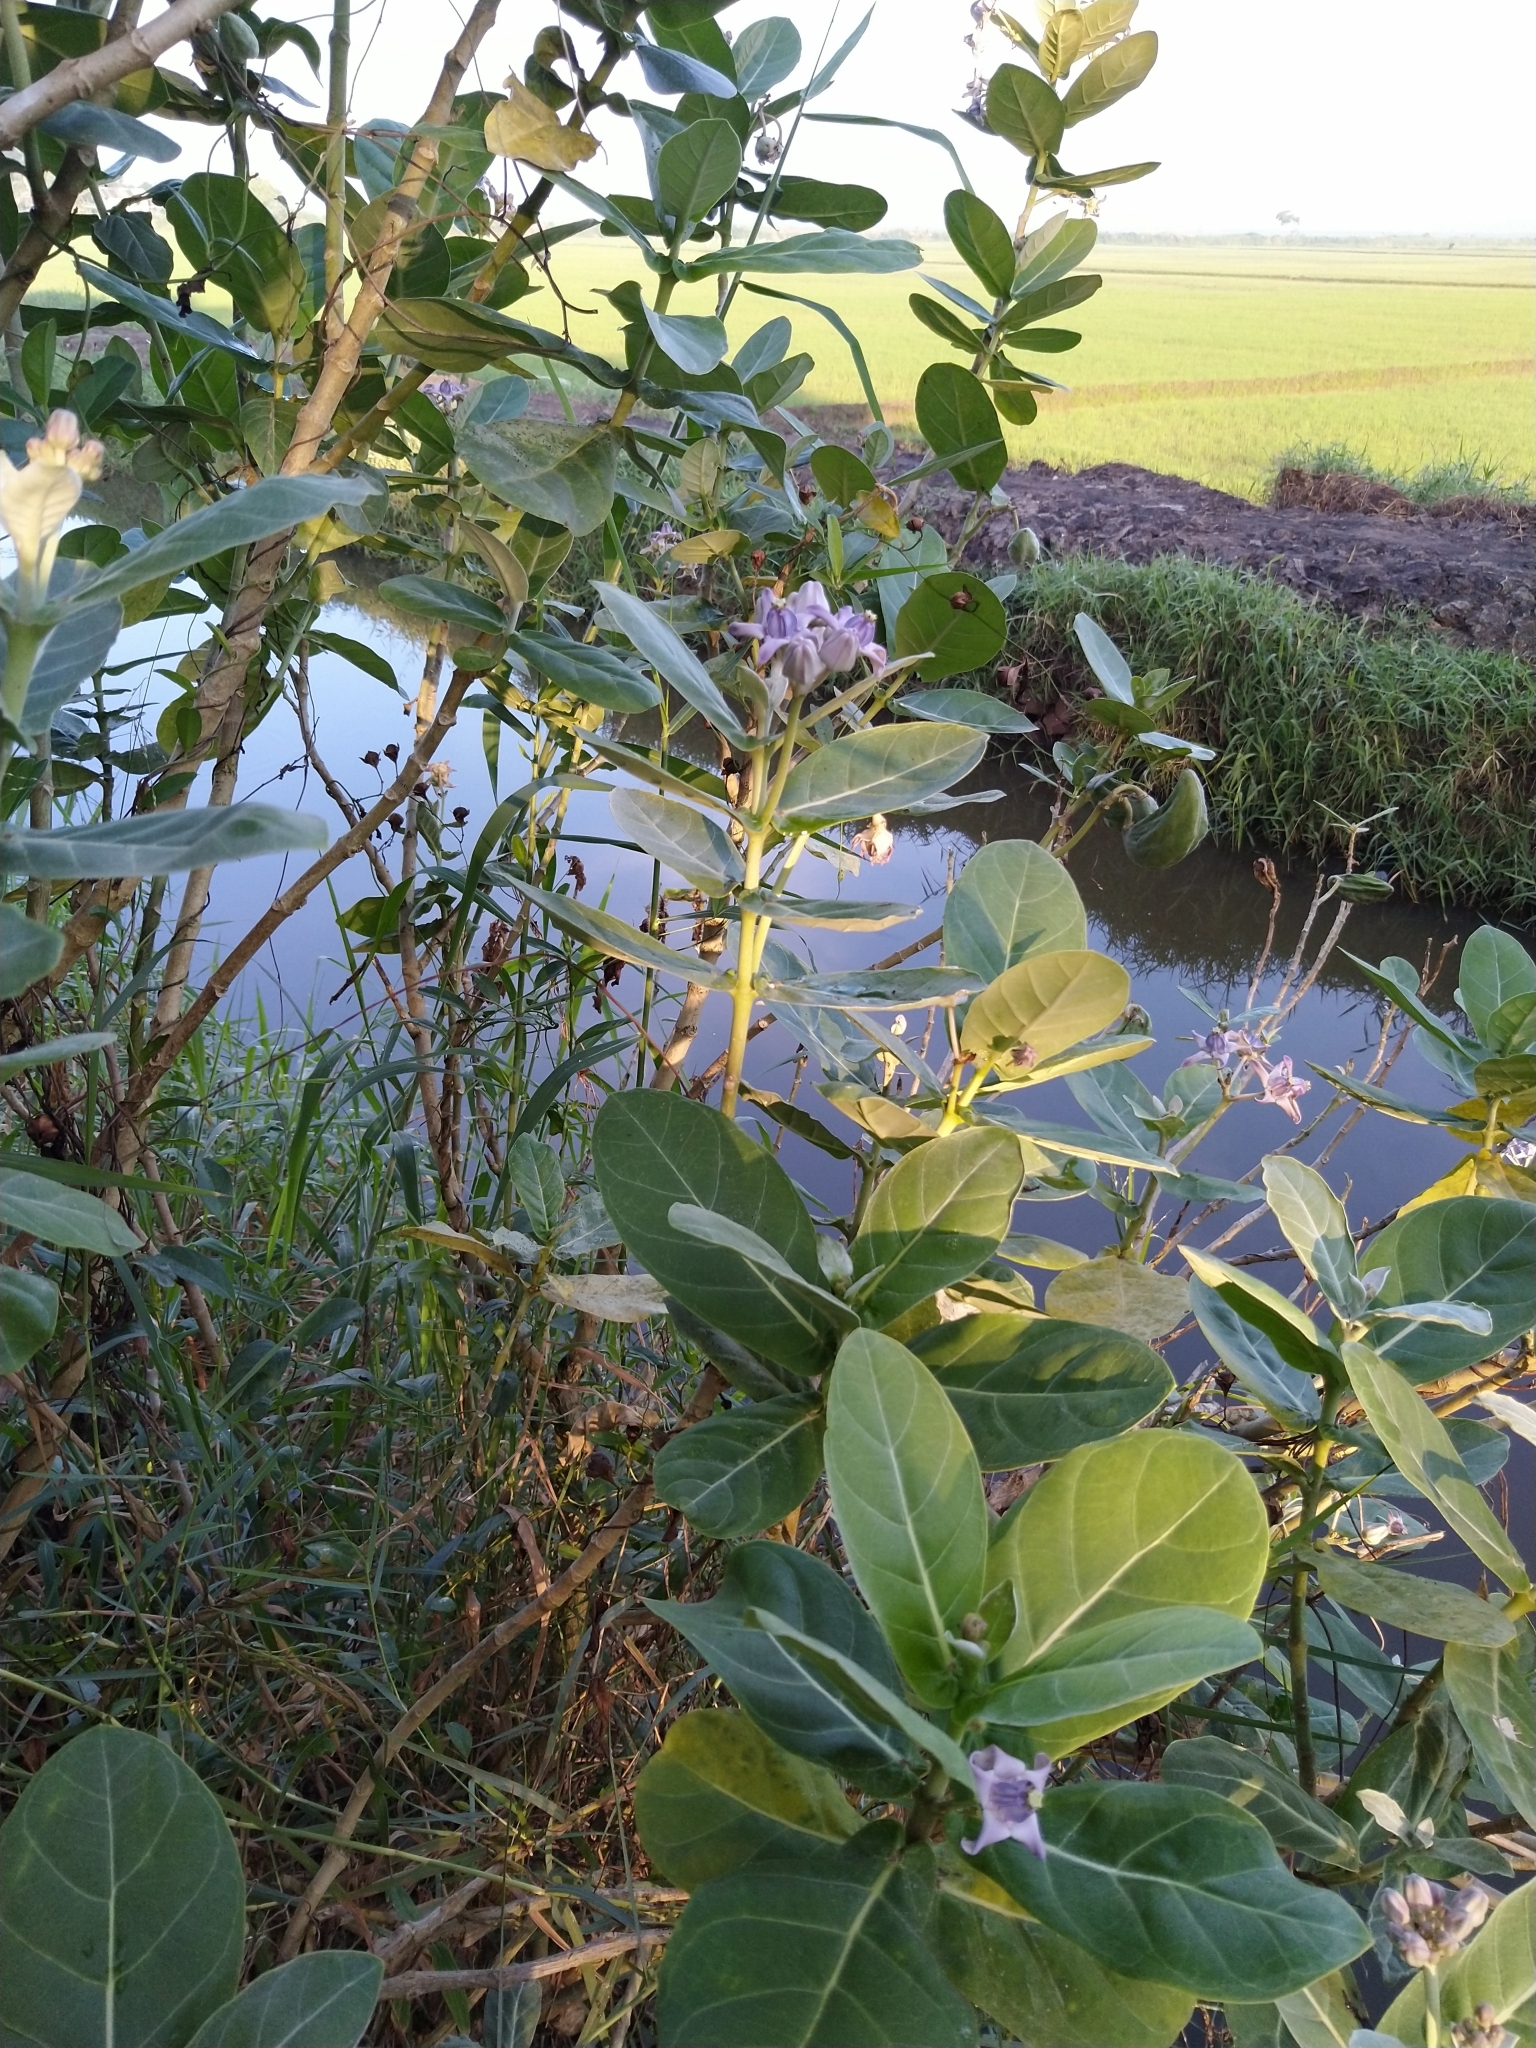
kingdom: Plantae
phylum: Tracheophyta
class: Magnoliopsida
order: Gentianales
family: Apocynaceae
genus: Calotropis
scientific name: Calotropis gigantea
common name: Crown flower
